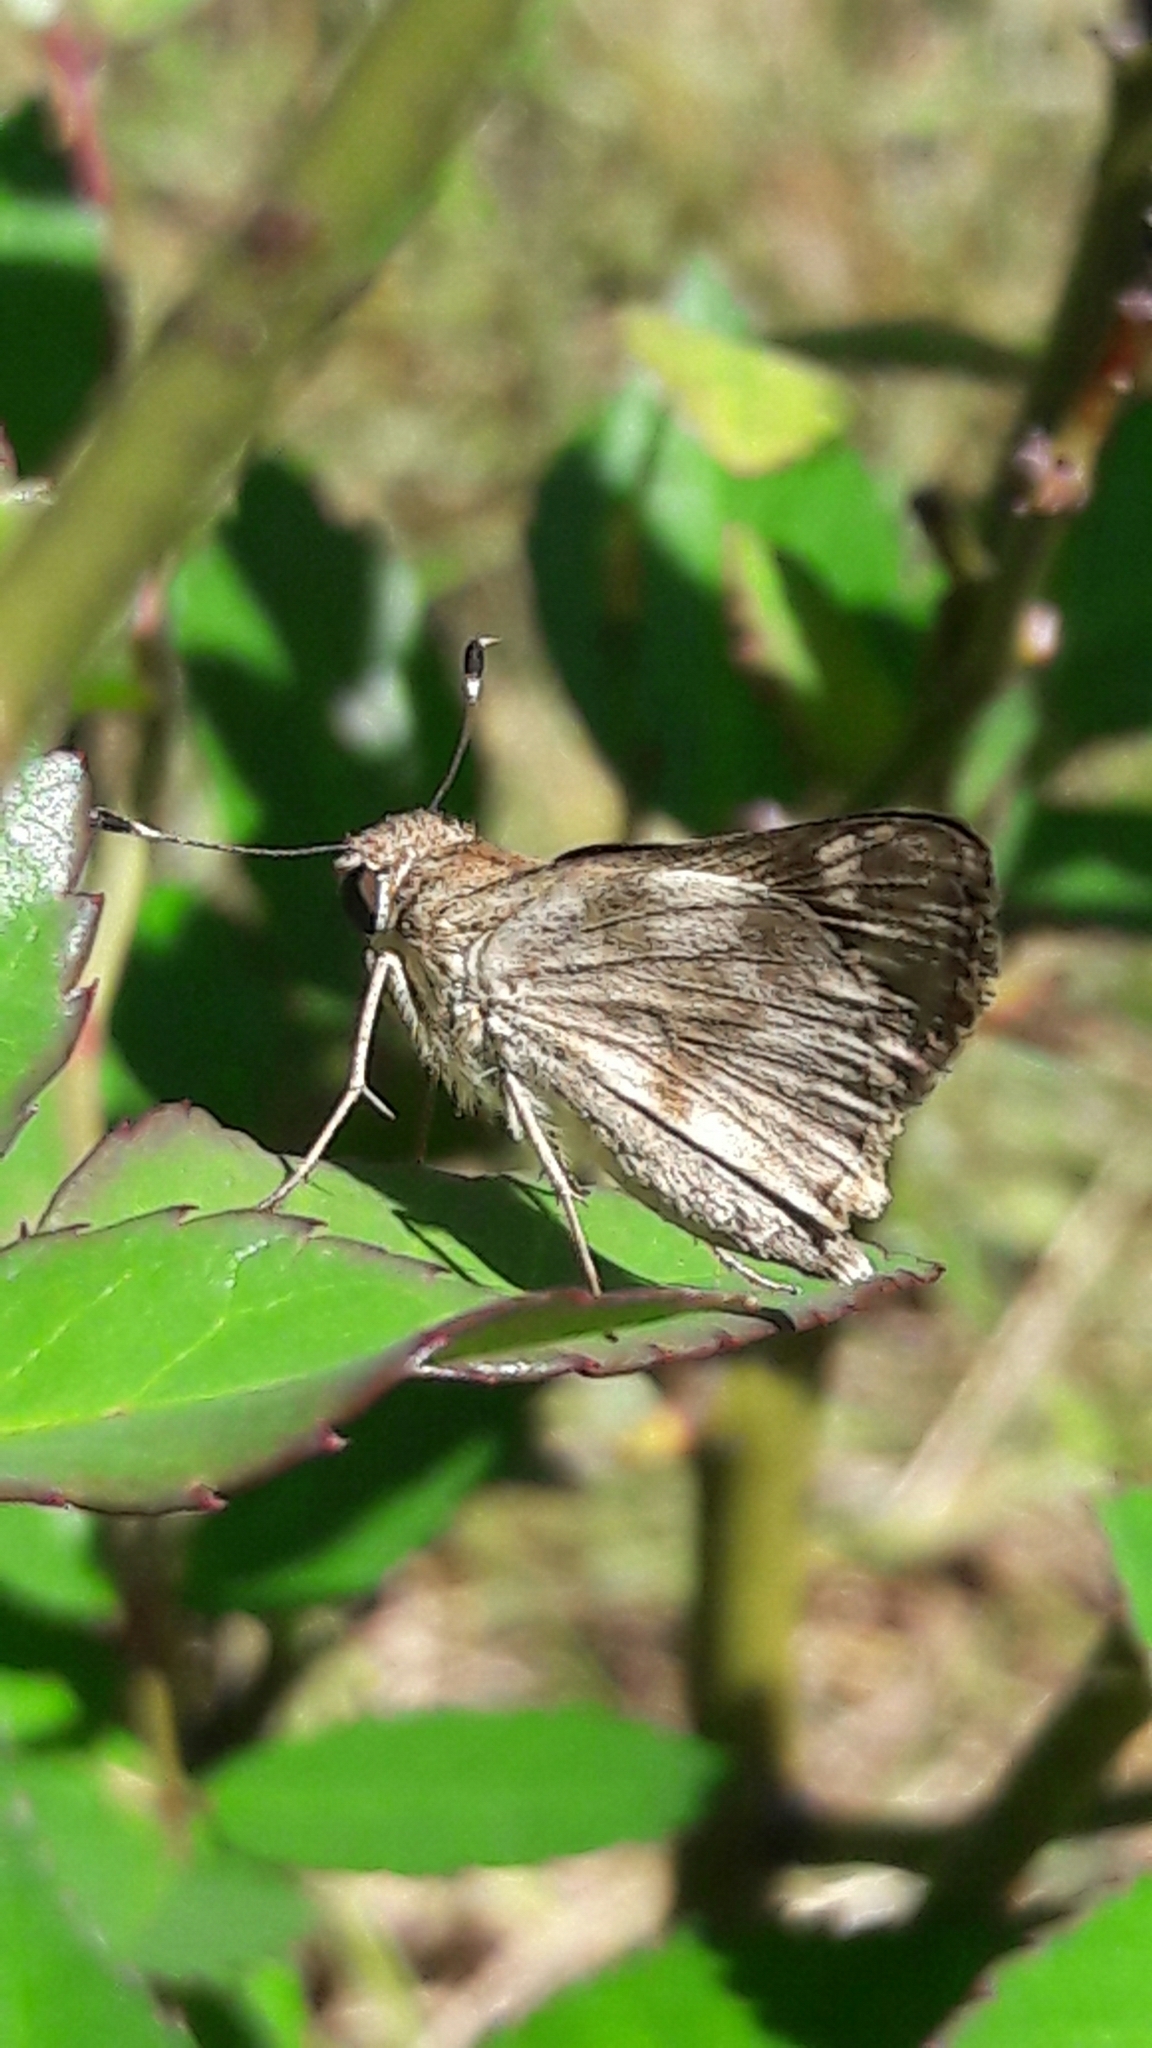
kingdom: Animalia
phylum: Arthropoda
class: Insecta
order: Lepidoptera
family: Hesperiidae
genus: Pompeius
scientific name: Pompeius pompeius
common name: Pompeius skipper
